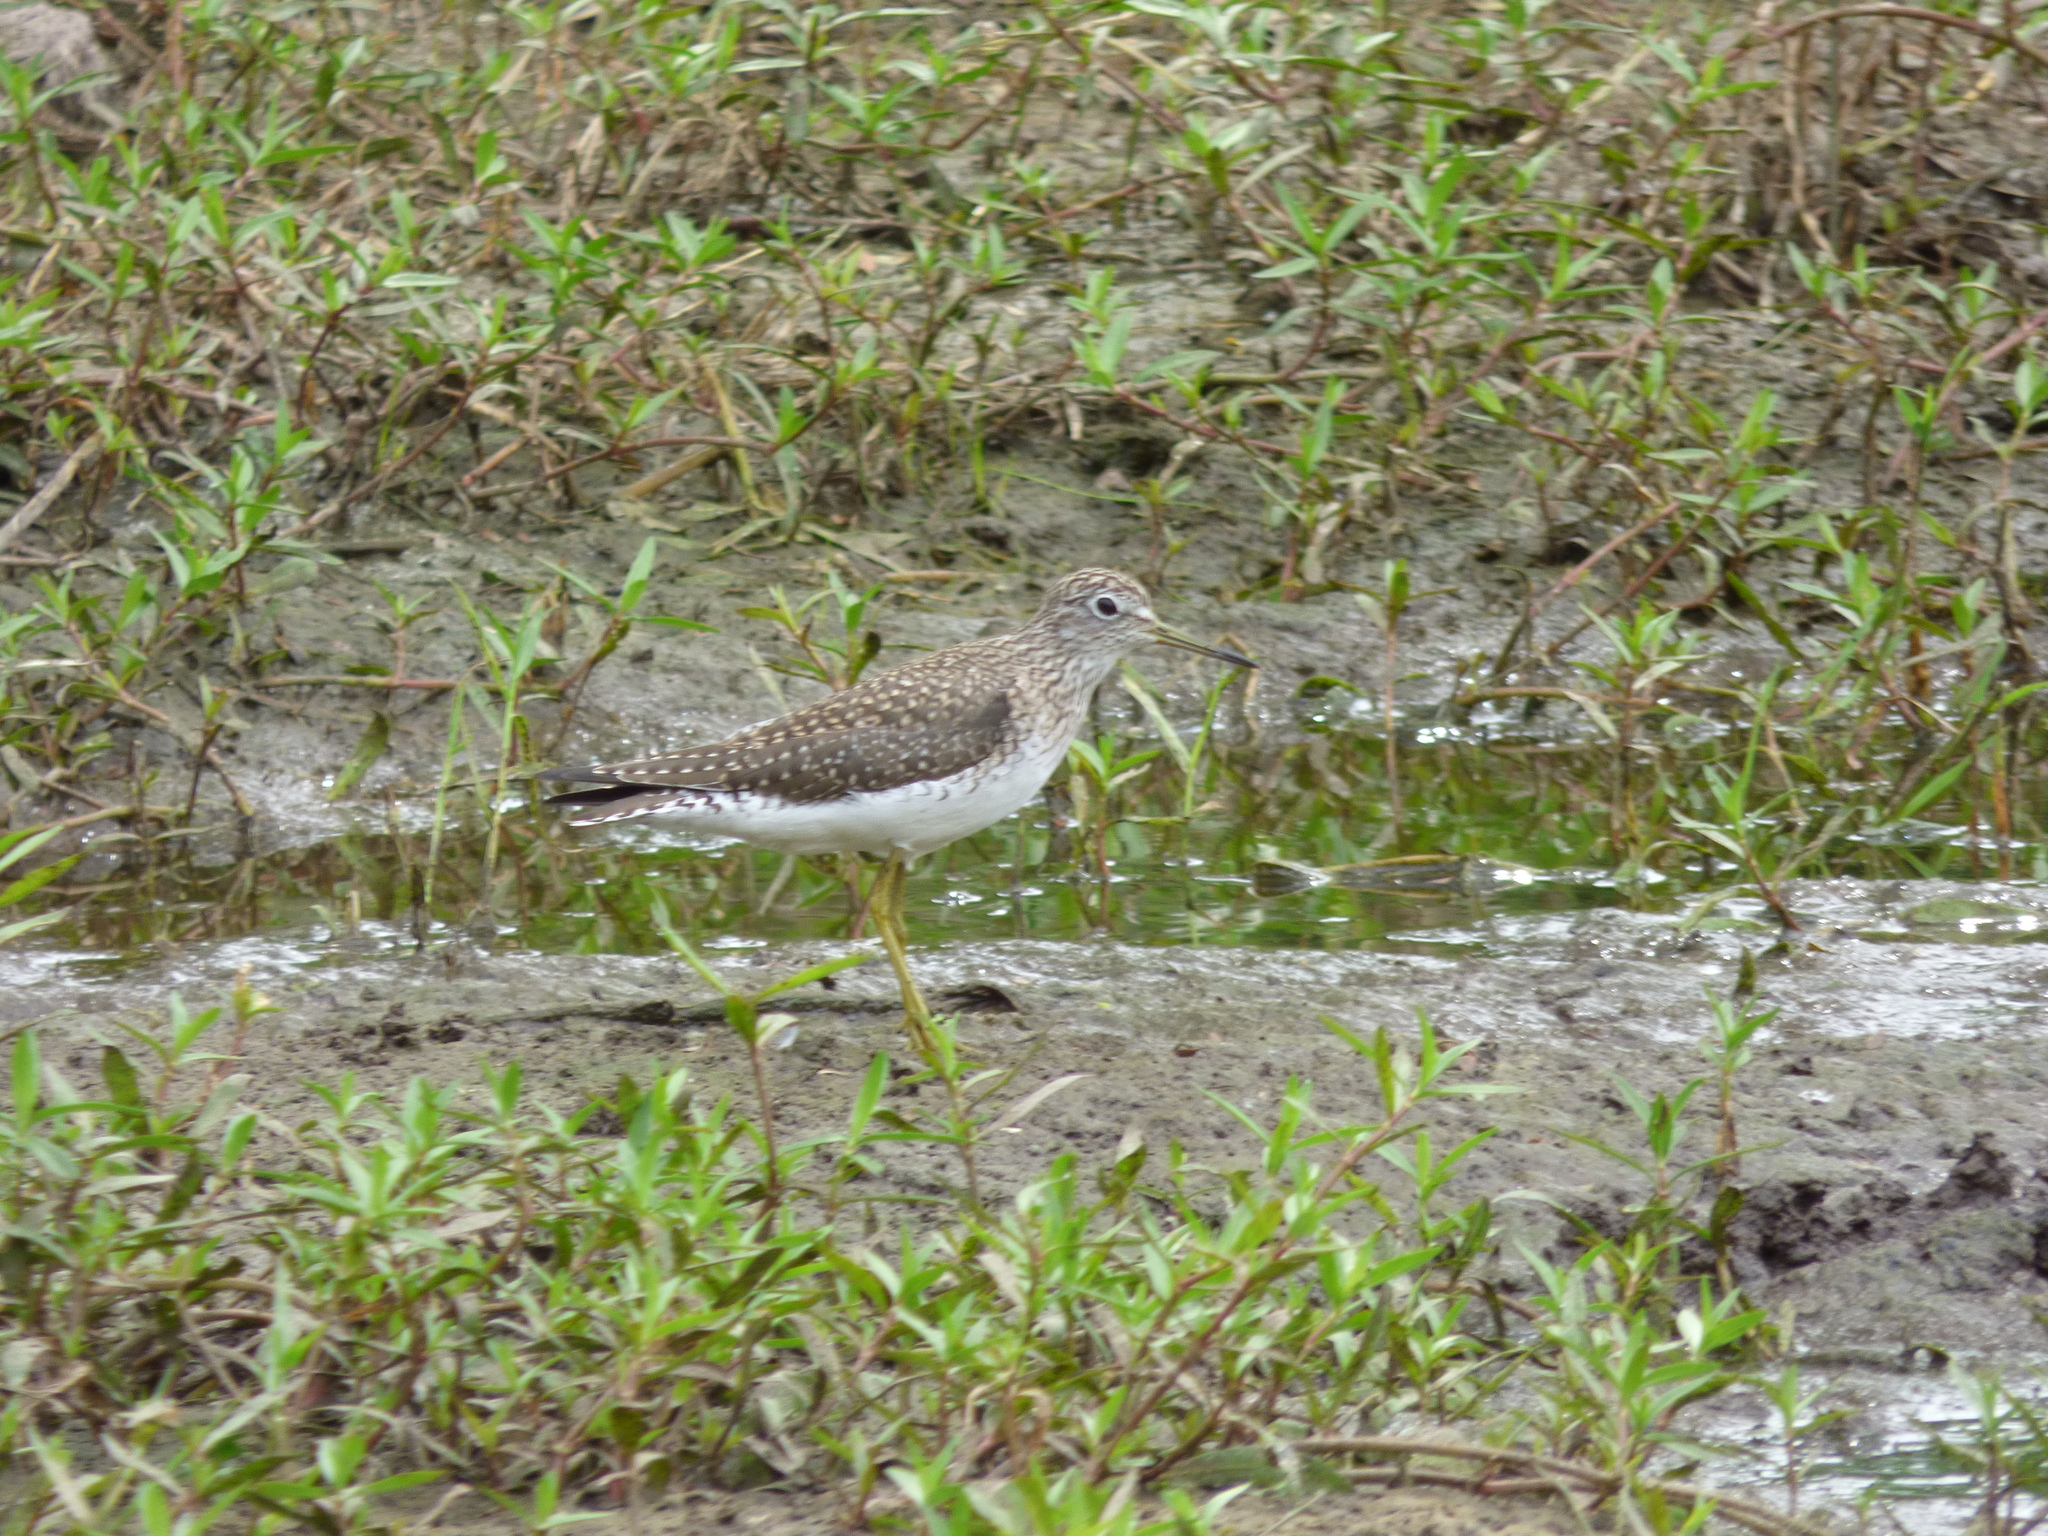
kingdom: Animalia
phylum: Chordata
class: Aves
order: Charadriiformes
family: Scolopacidae
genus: Tringa
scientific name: Tringa solitaria
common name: Solitary sandpiper
